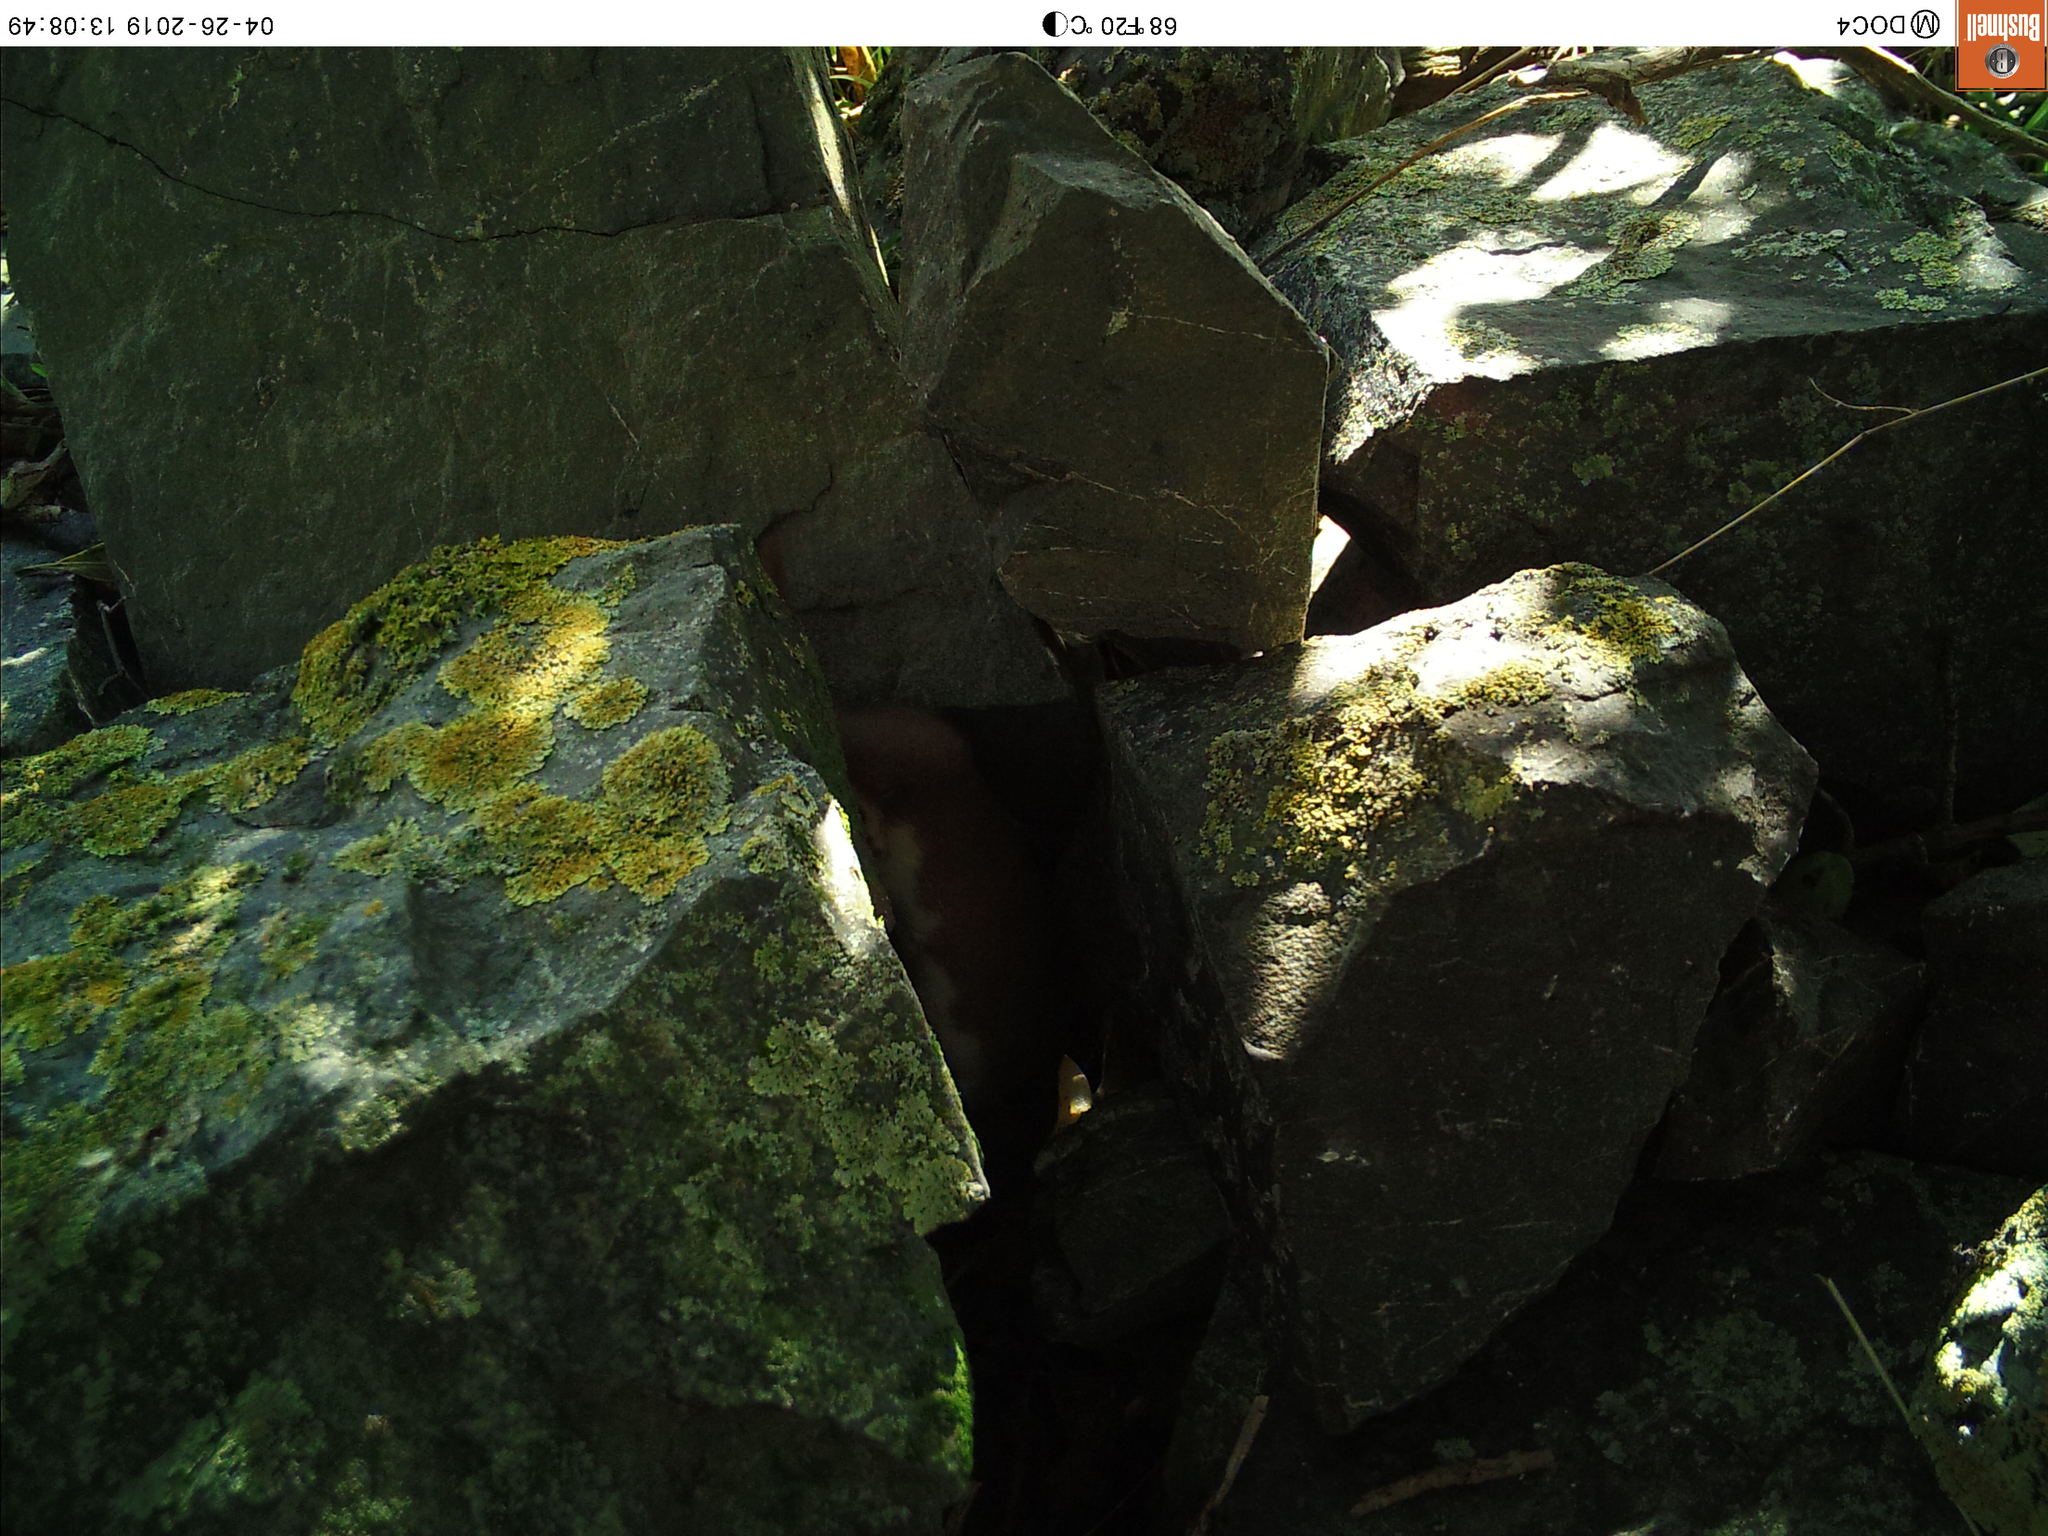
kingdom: Animalia
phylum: Chordata
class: Mammalia
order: Carnivora
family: Mustelidae
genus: Mustela
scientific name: Mustela nivalis
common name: Least weasel
